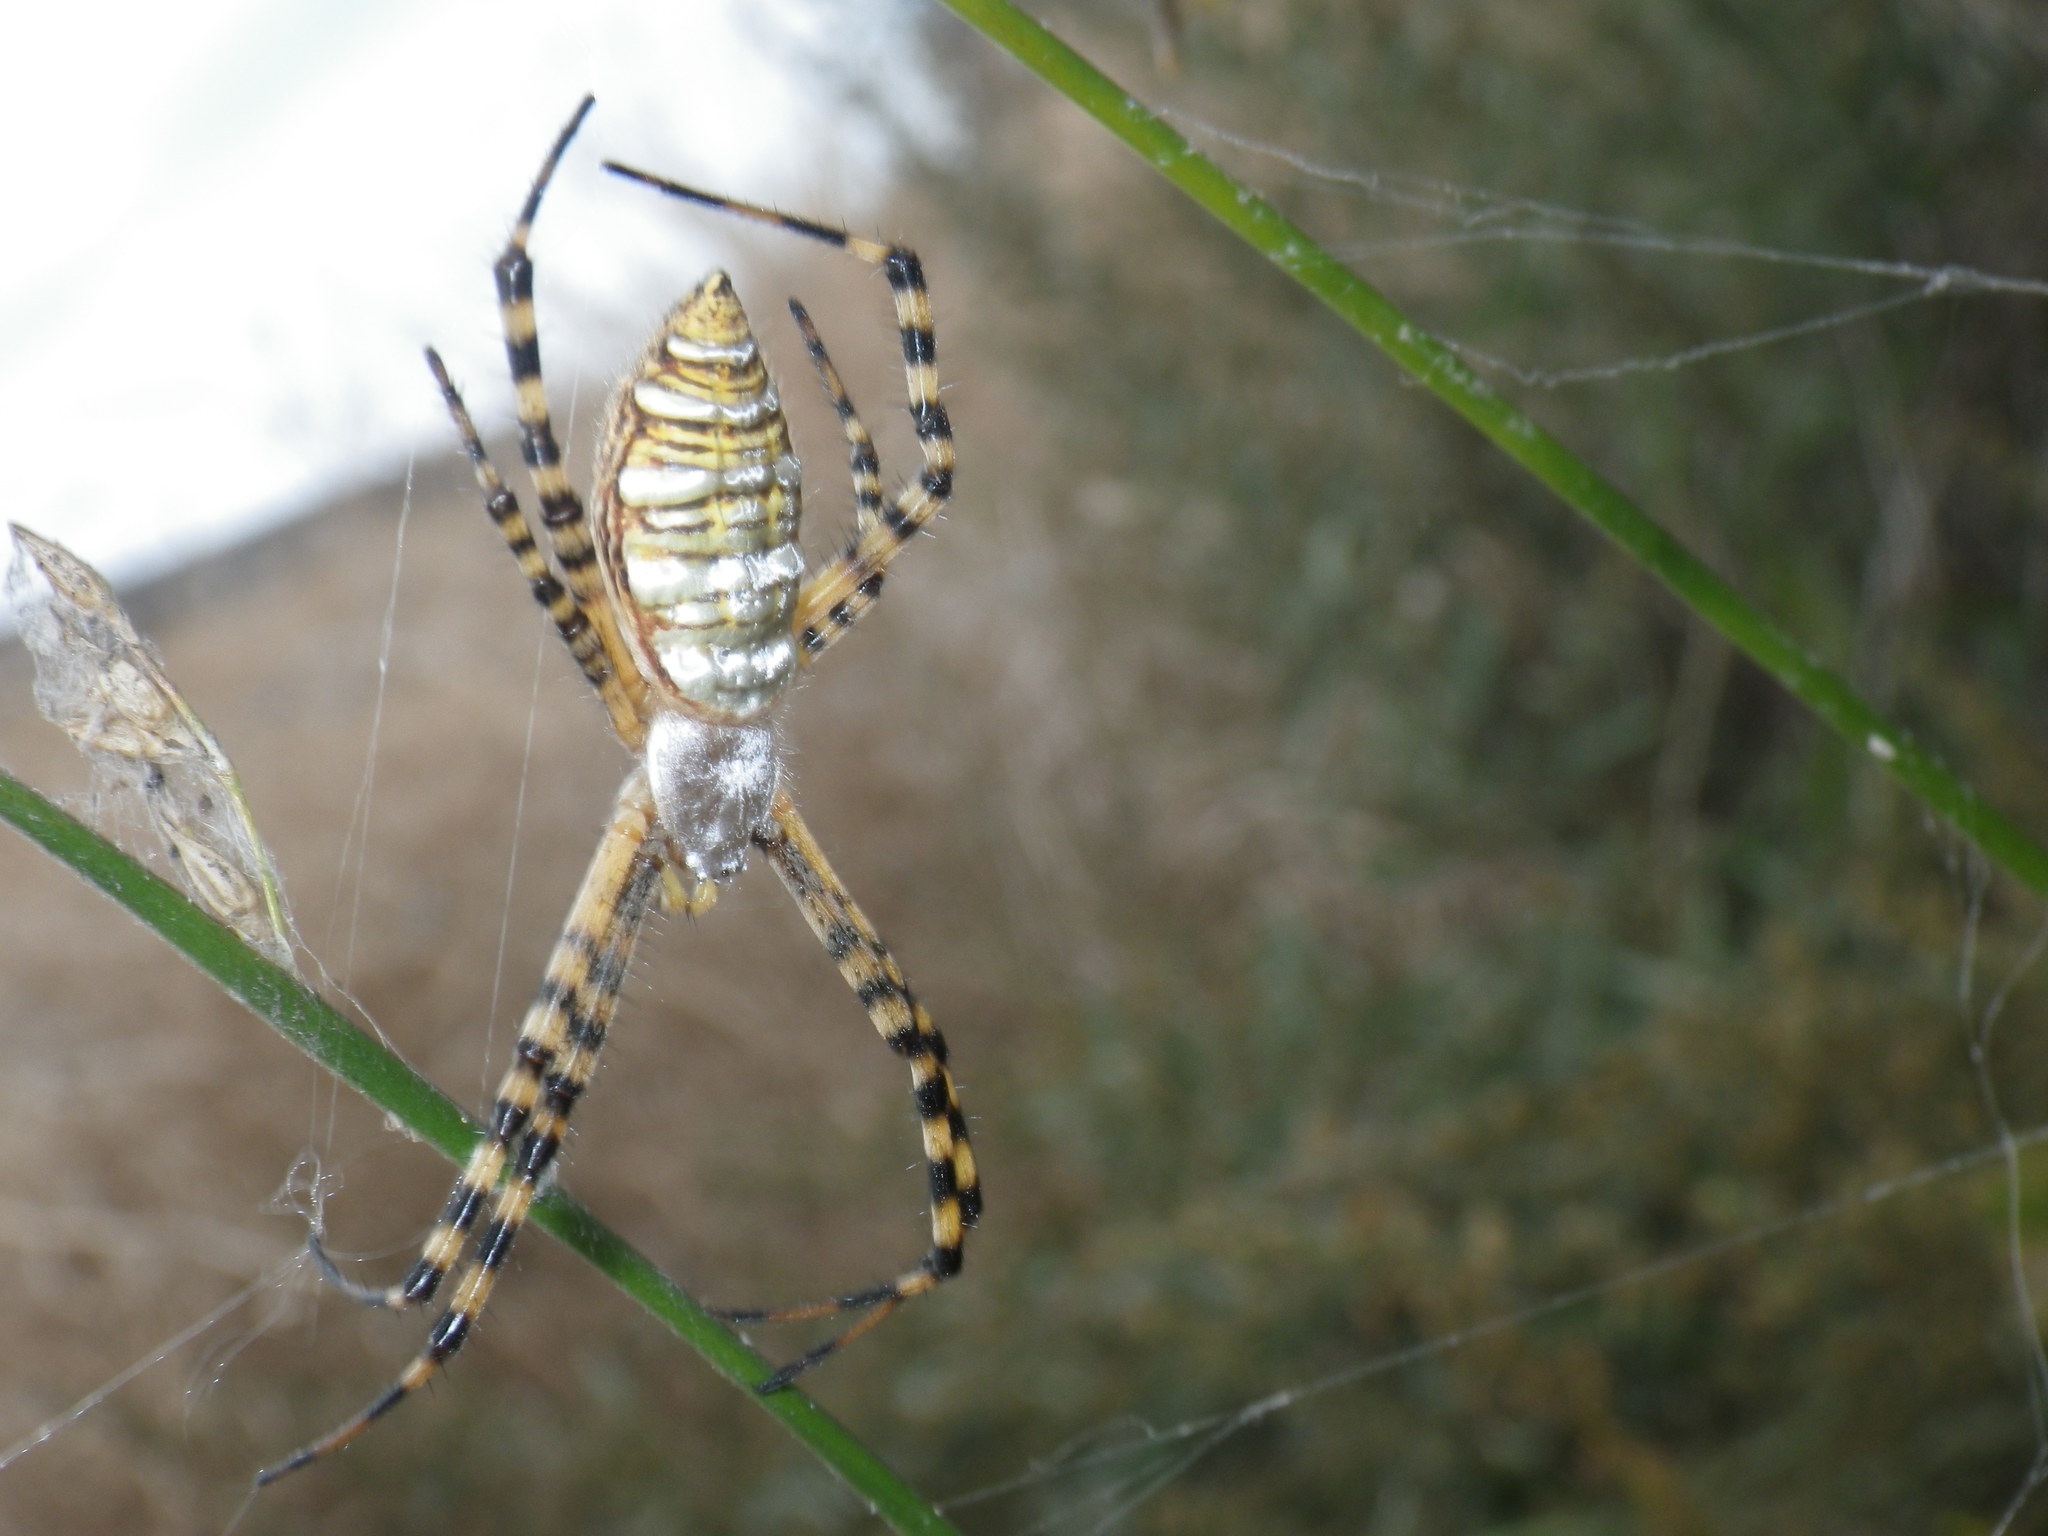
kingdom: Animalia
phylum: Arthropoda
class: Arachnida
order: Araneae
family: Araneidae
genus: Argiope
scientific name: Argiope trifasciata
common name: Banded garden spider
